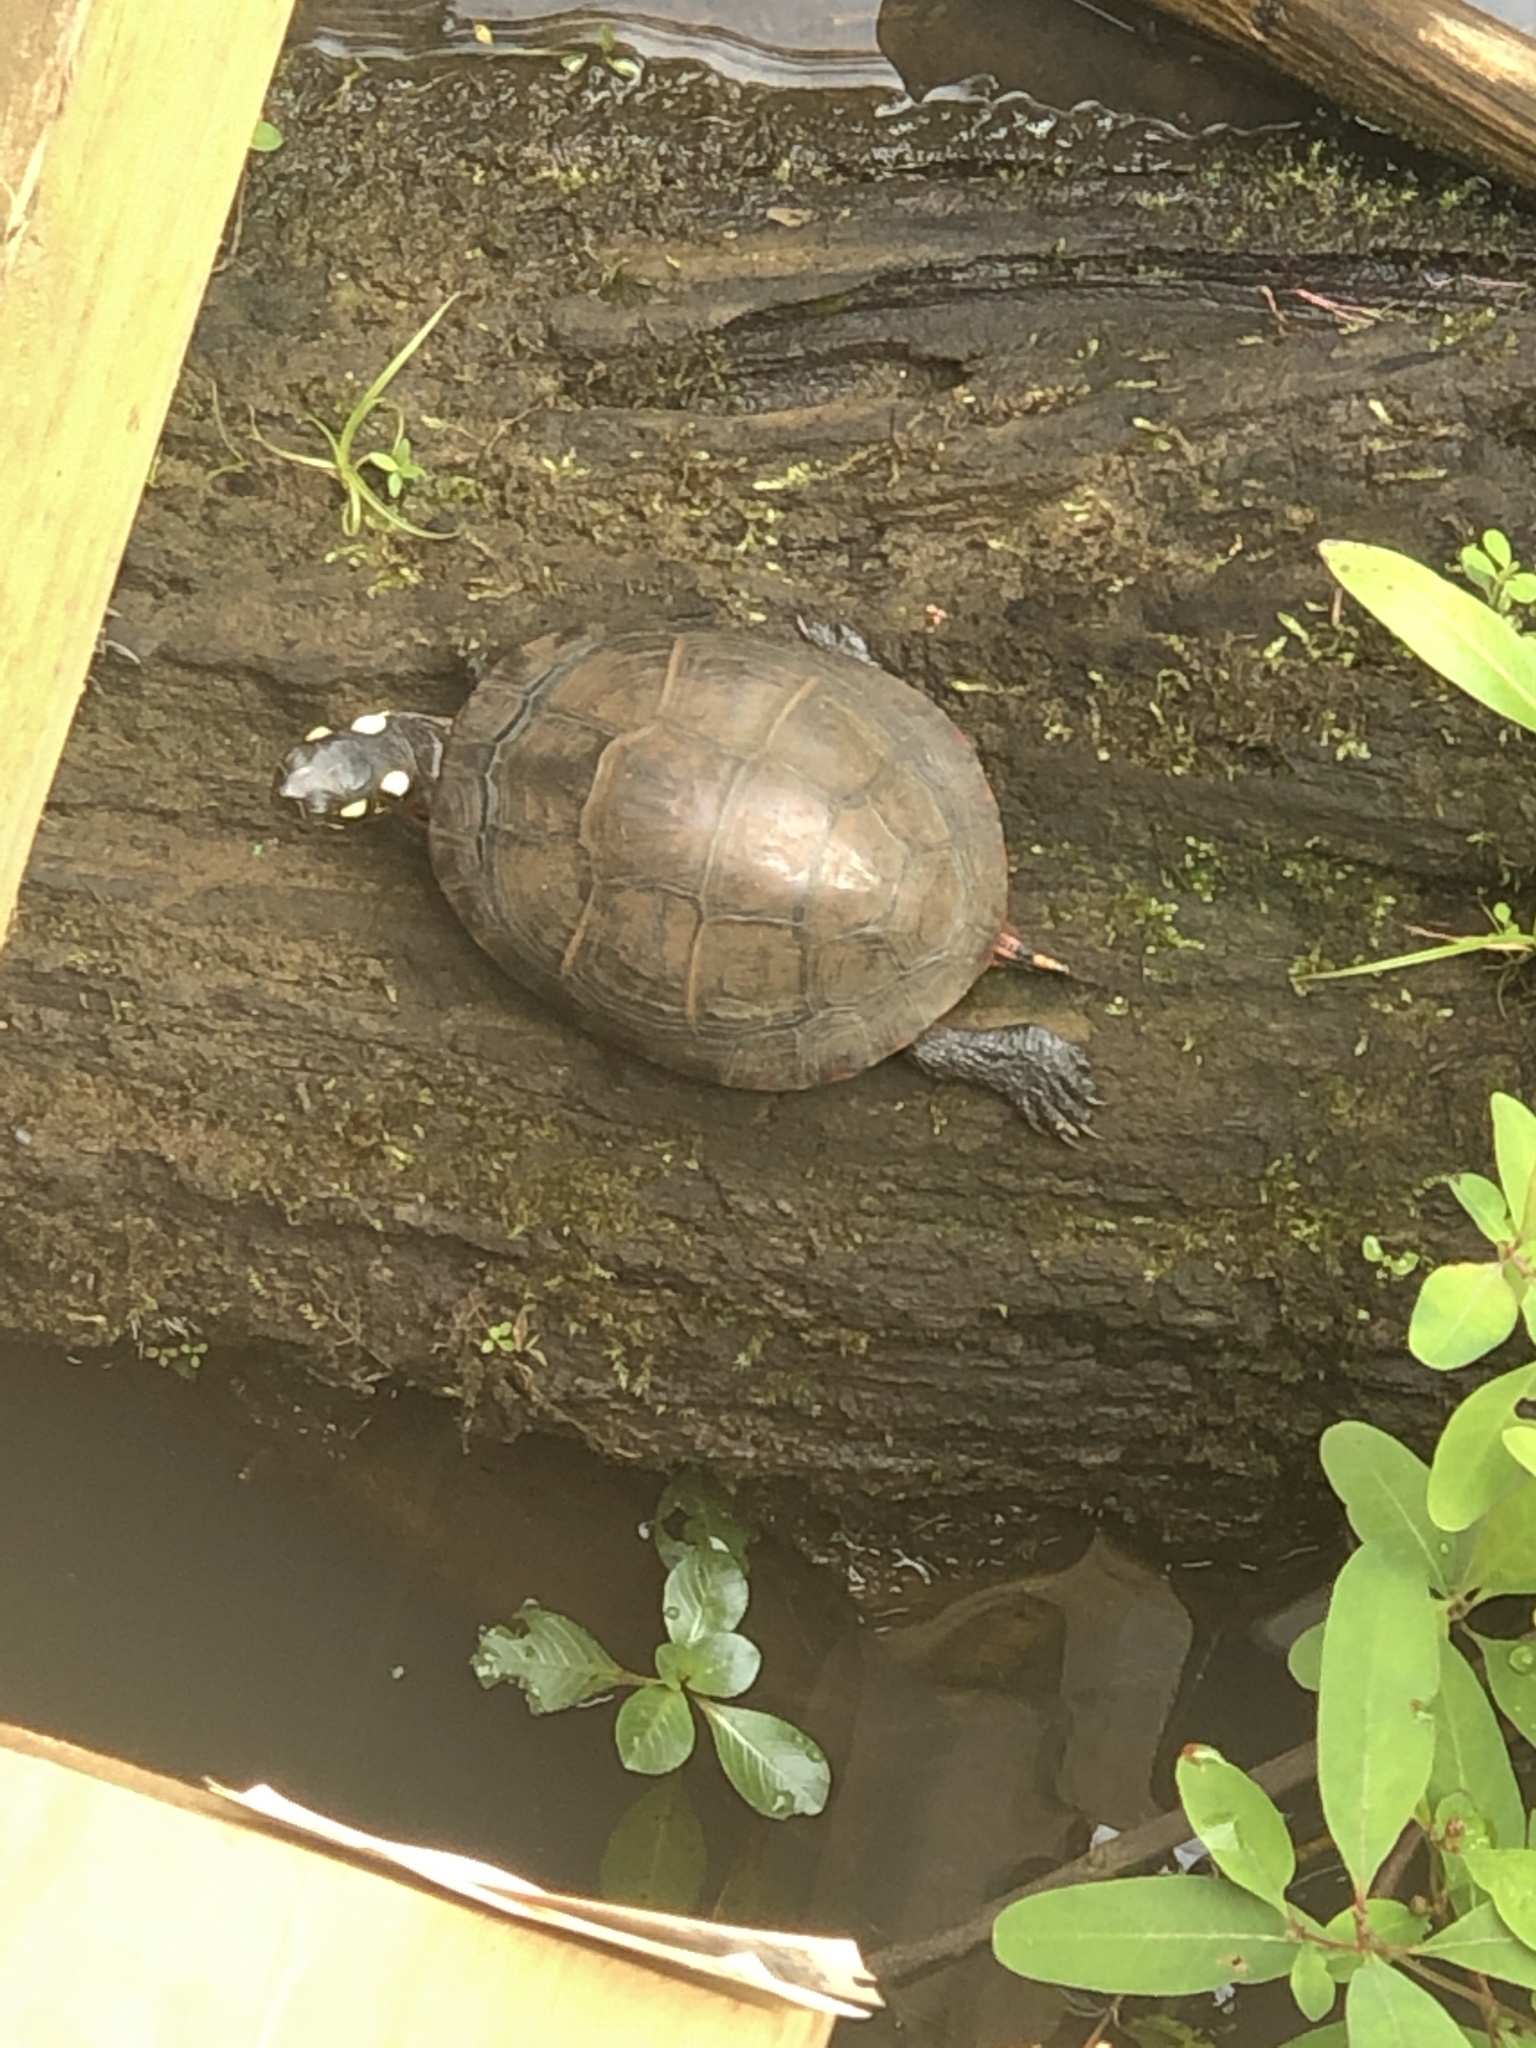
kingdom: Animalia
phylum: Chordata
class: Testudines
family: Emydidae
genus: Chrysemys
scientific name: Chrysemys picta
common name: Painted turtle
